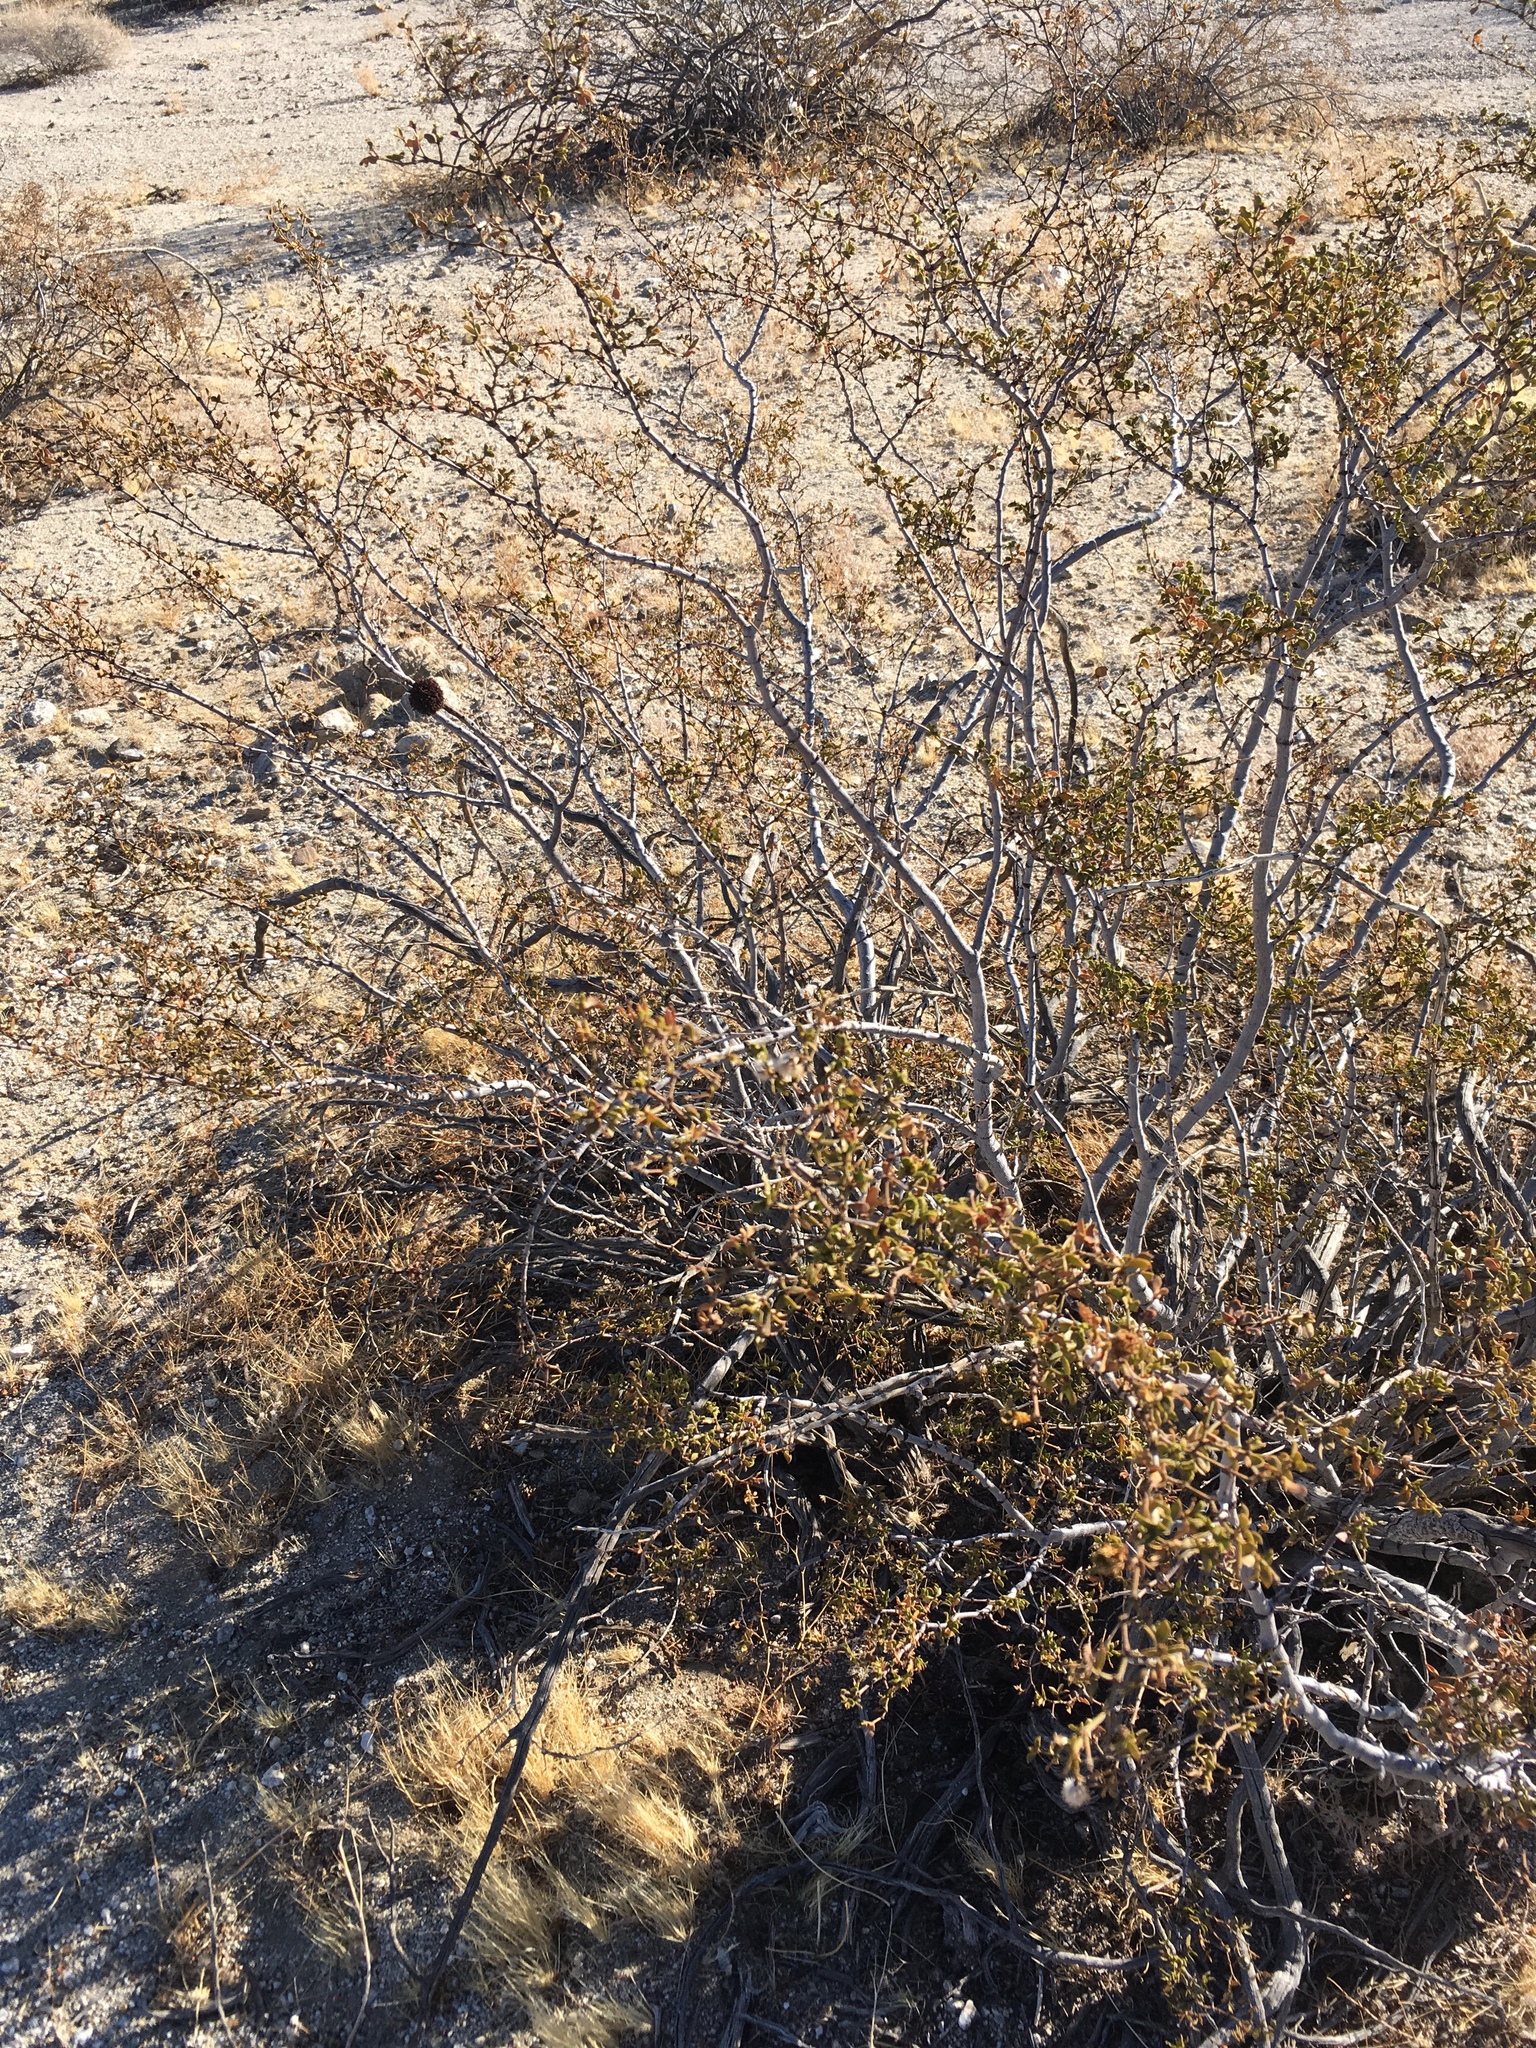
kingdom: Plantae
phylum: Tracheophyta
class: Magnoliopsida
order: Zygophyllales
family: Zygophyllaceae
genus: Larrea
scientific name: Larrea tridentata
